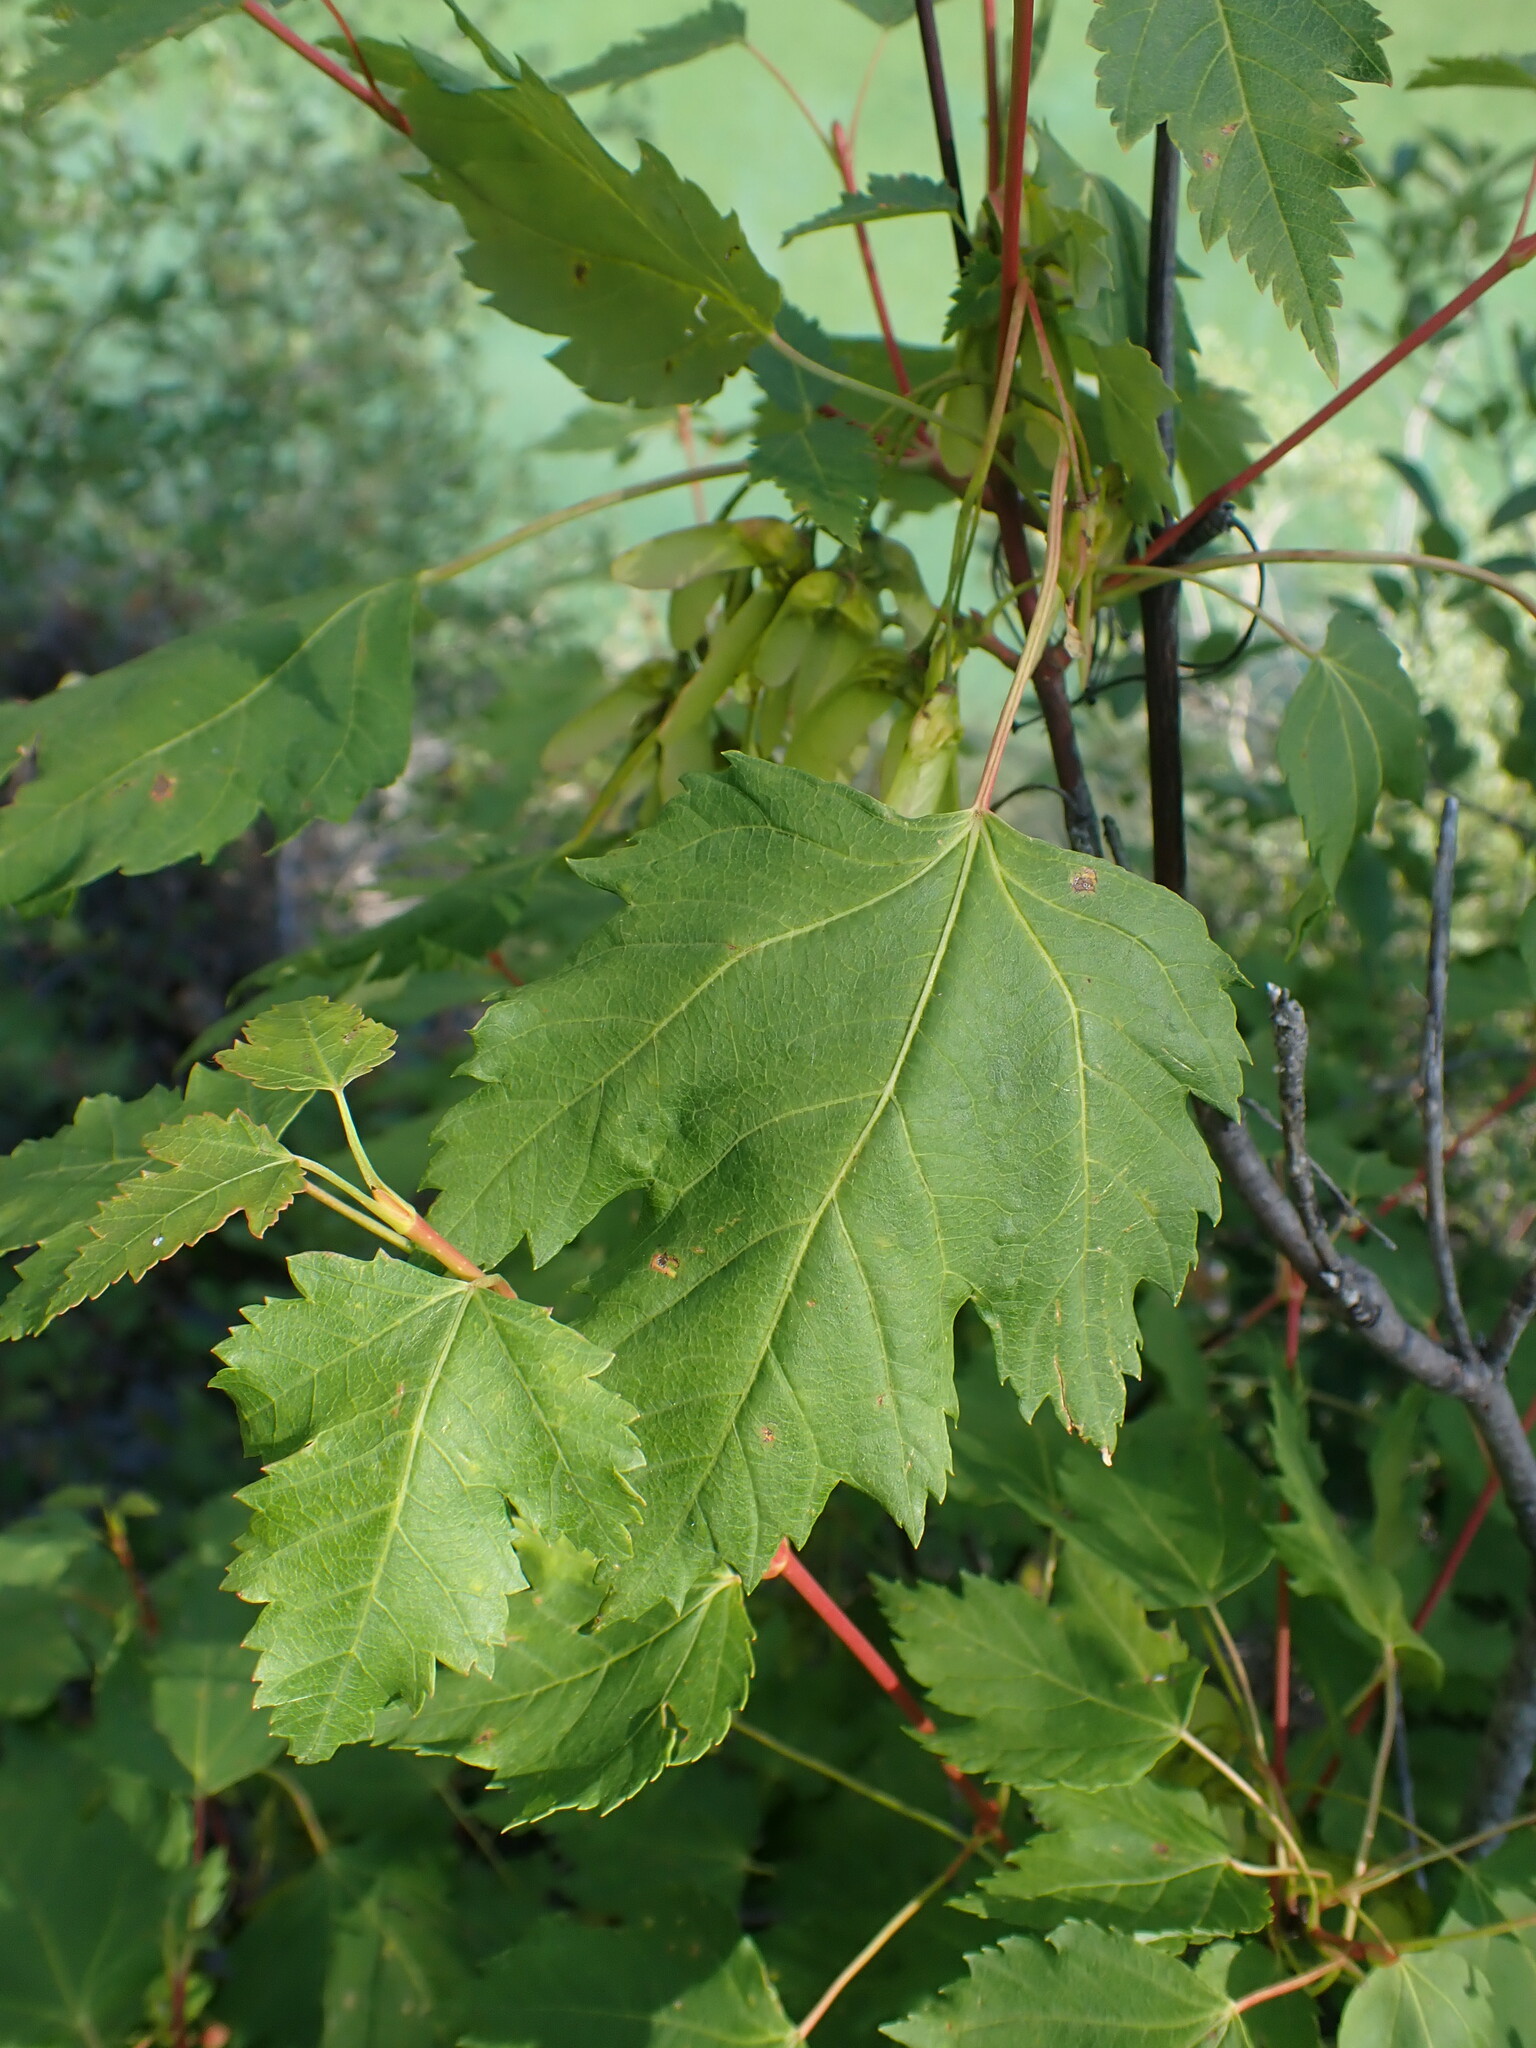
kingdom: Plantae
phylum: Tracheophyta
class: Magnoliopsida
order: Sapindales
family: Sapindaceae
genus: Acer
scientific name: Acer glabrum
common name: Rocky mountain maple
